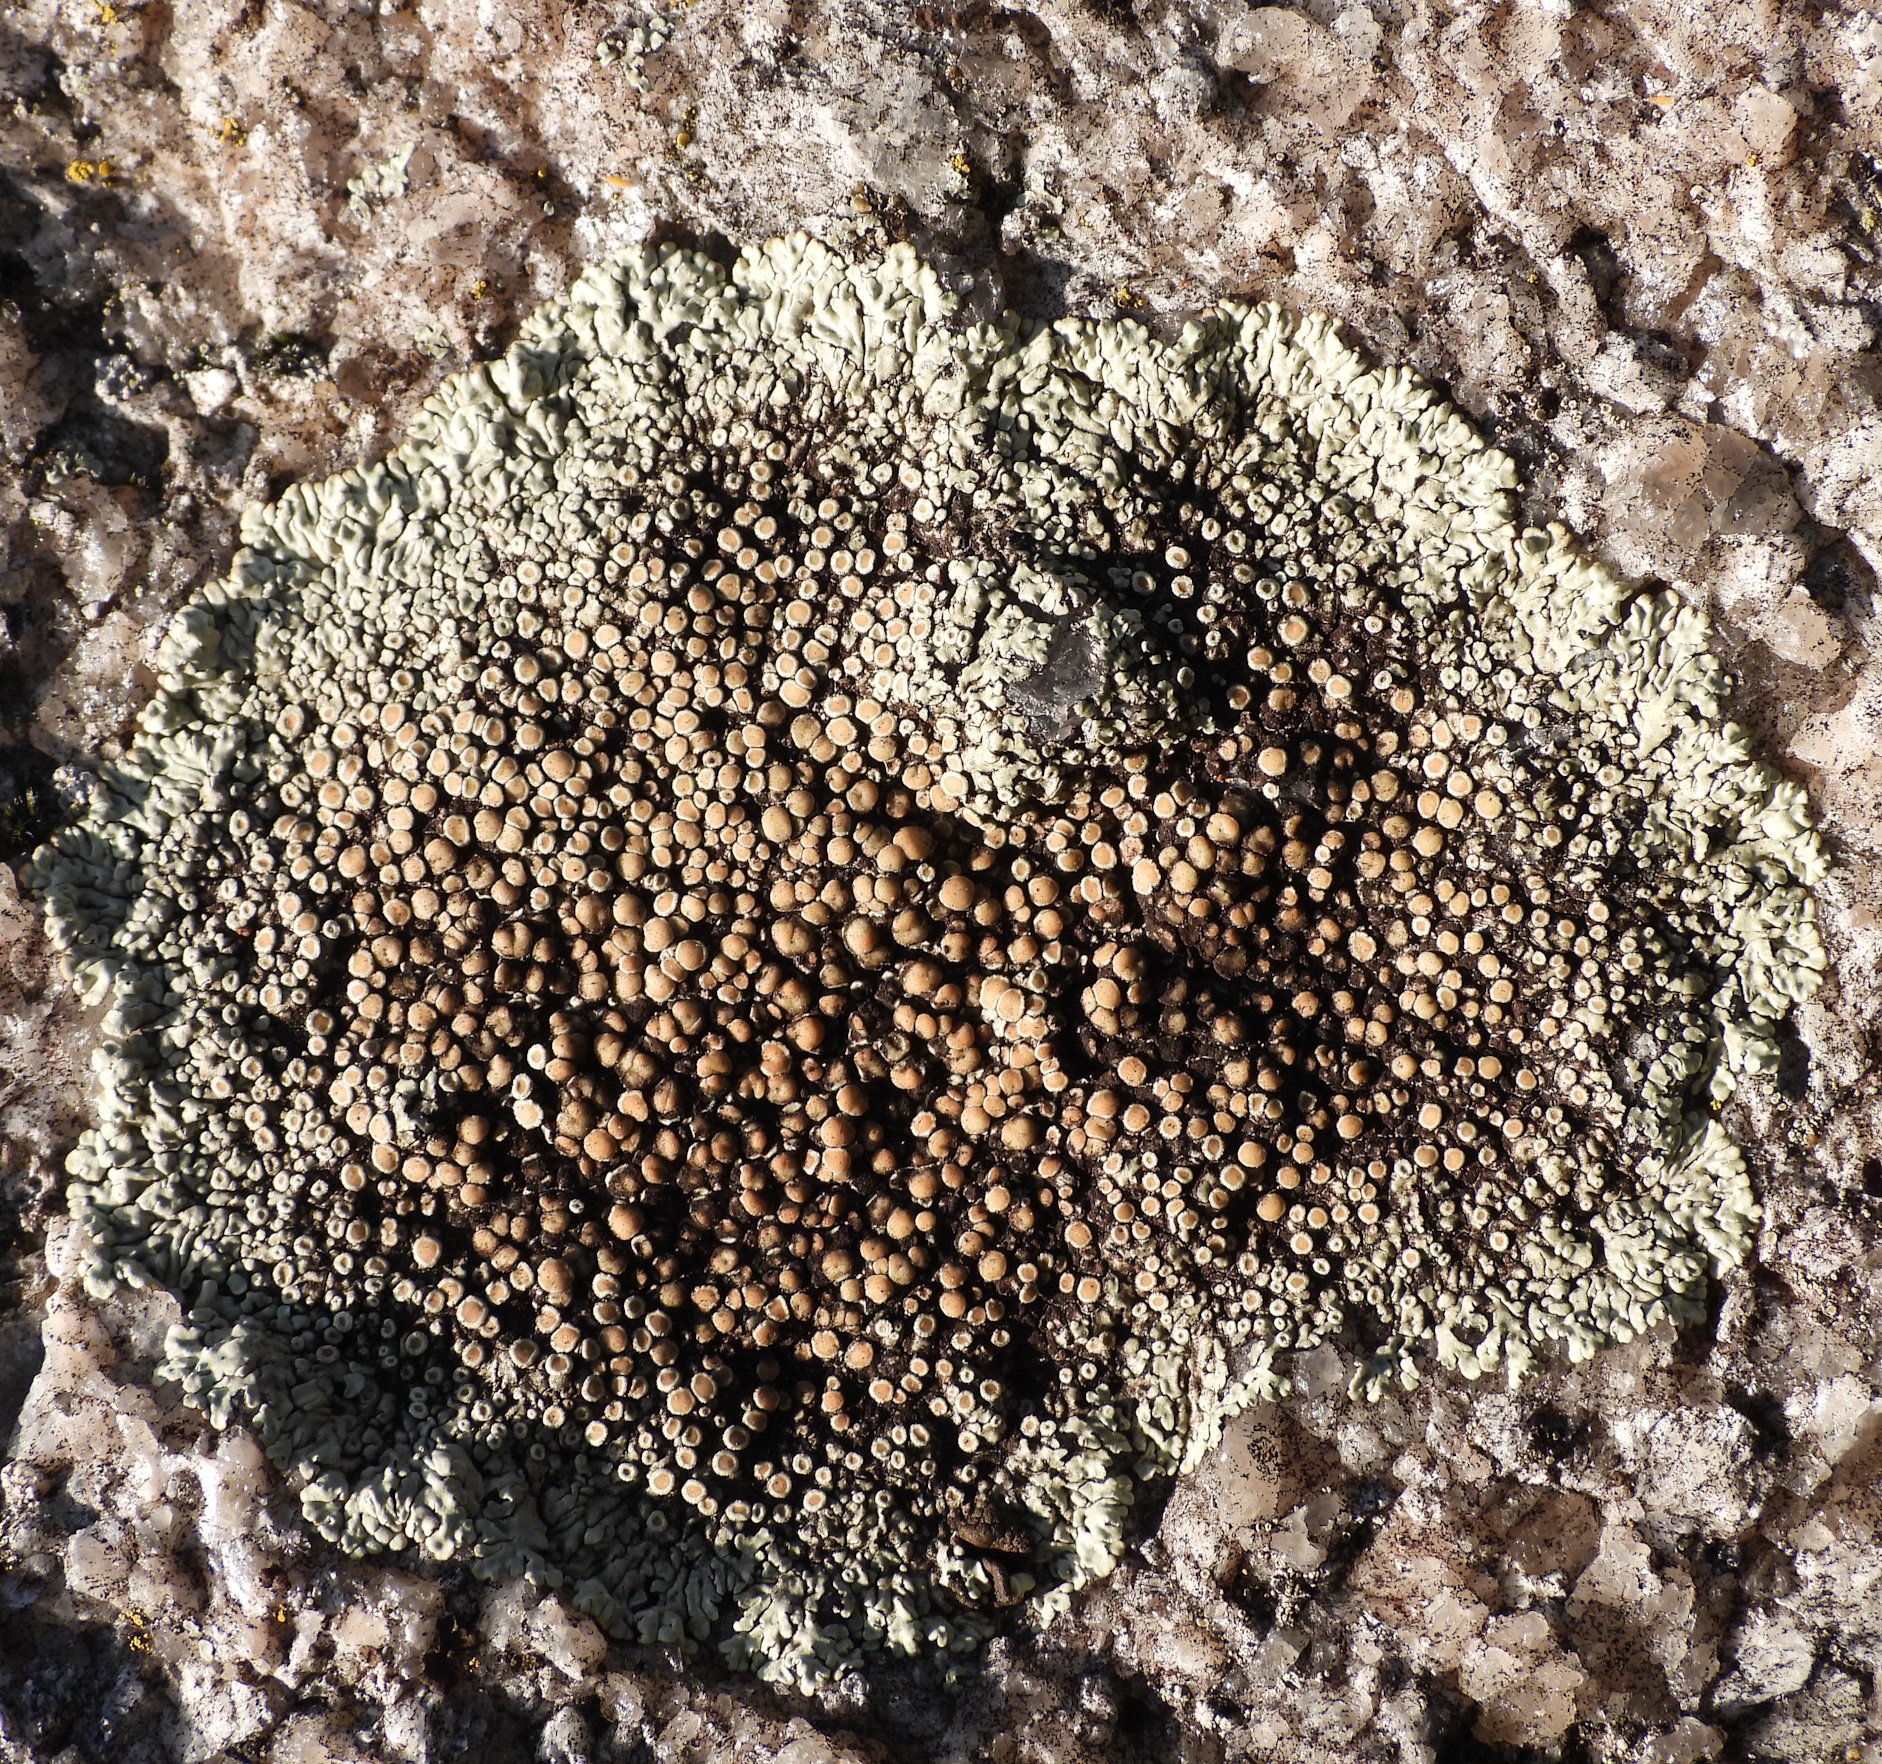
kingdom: Fungi
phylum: Ascomycota
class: Lecanoromycetes
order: Lecanorales
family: Lecanoraceae
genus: Protoparmeliopsis
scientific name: Protoparmeliopsis muralis
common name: Stonewall rim lichen
